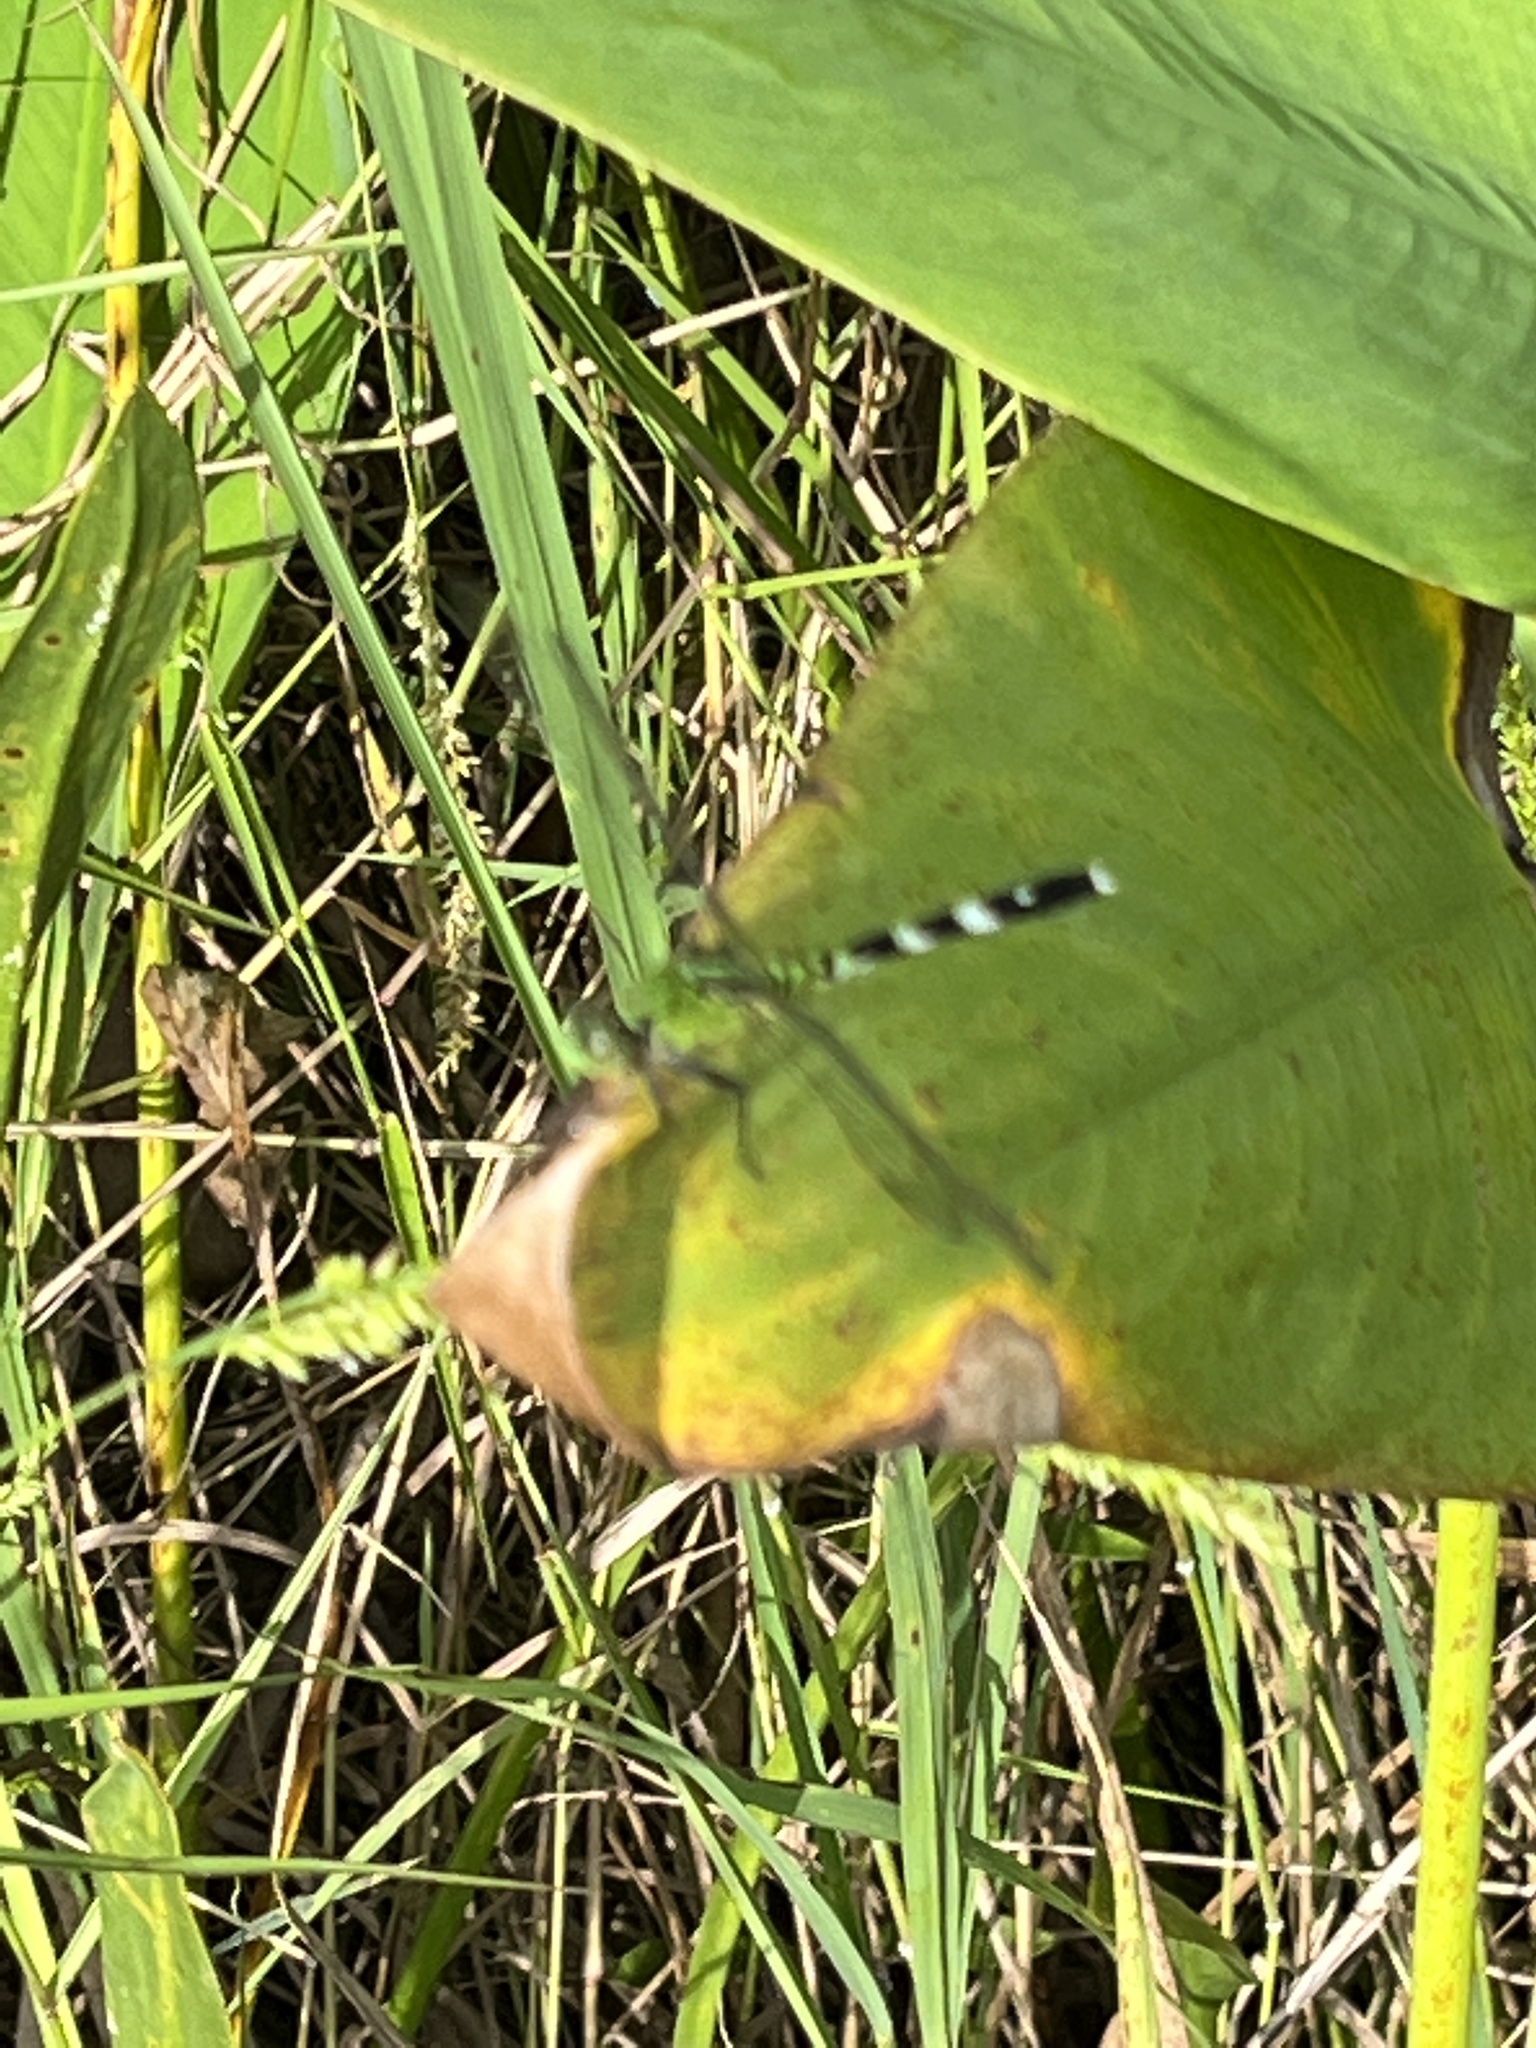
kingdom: Animalia
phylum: Arthropoda
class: Insecta
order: Odonata
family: Libellulidae
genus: Erythemis
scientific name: Erythemis simplicicollis
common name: Eastern pondhawk
